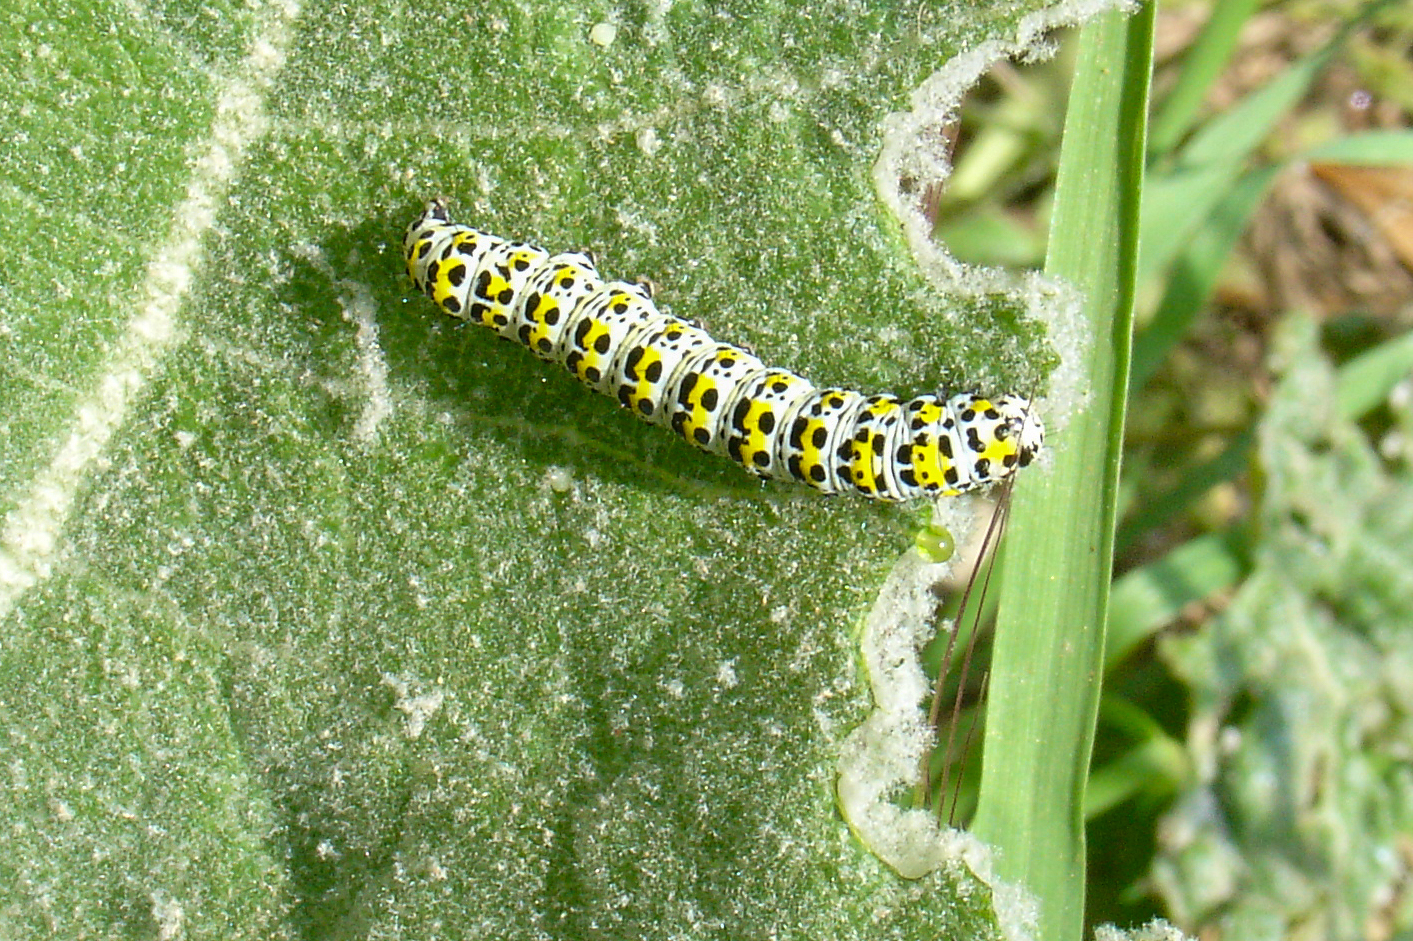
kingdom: Animalia
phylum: Arthropoda
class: Insecta
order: Lepidoptera
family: Noctuidae
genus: Cucullia
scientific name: Cucullia verbasci
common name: Mullein
